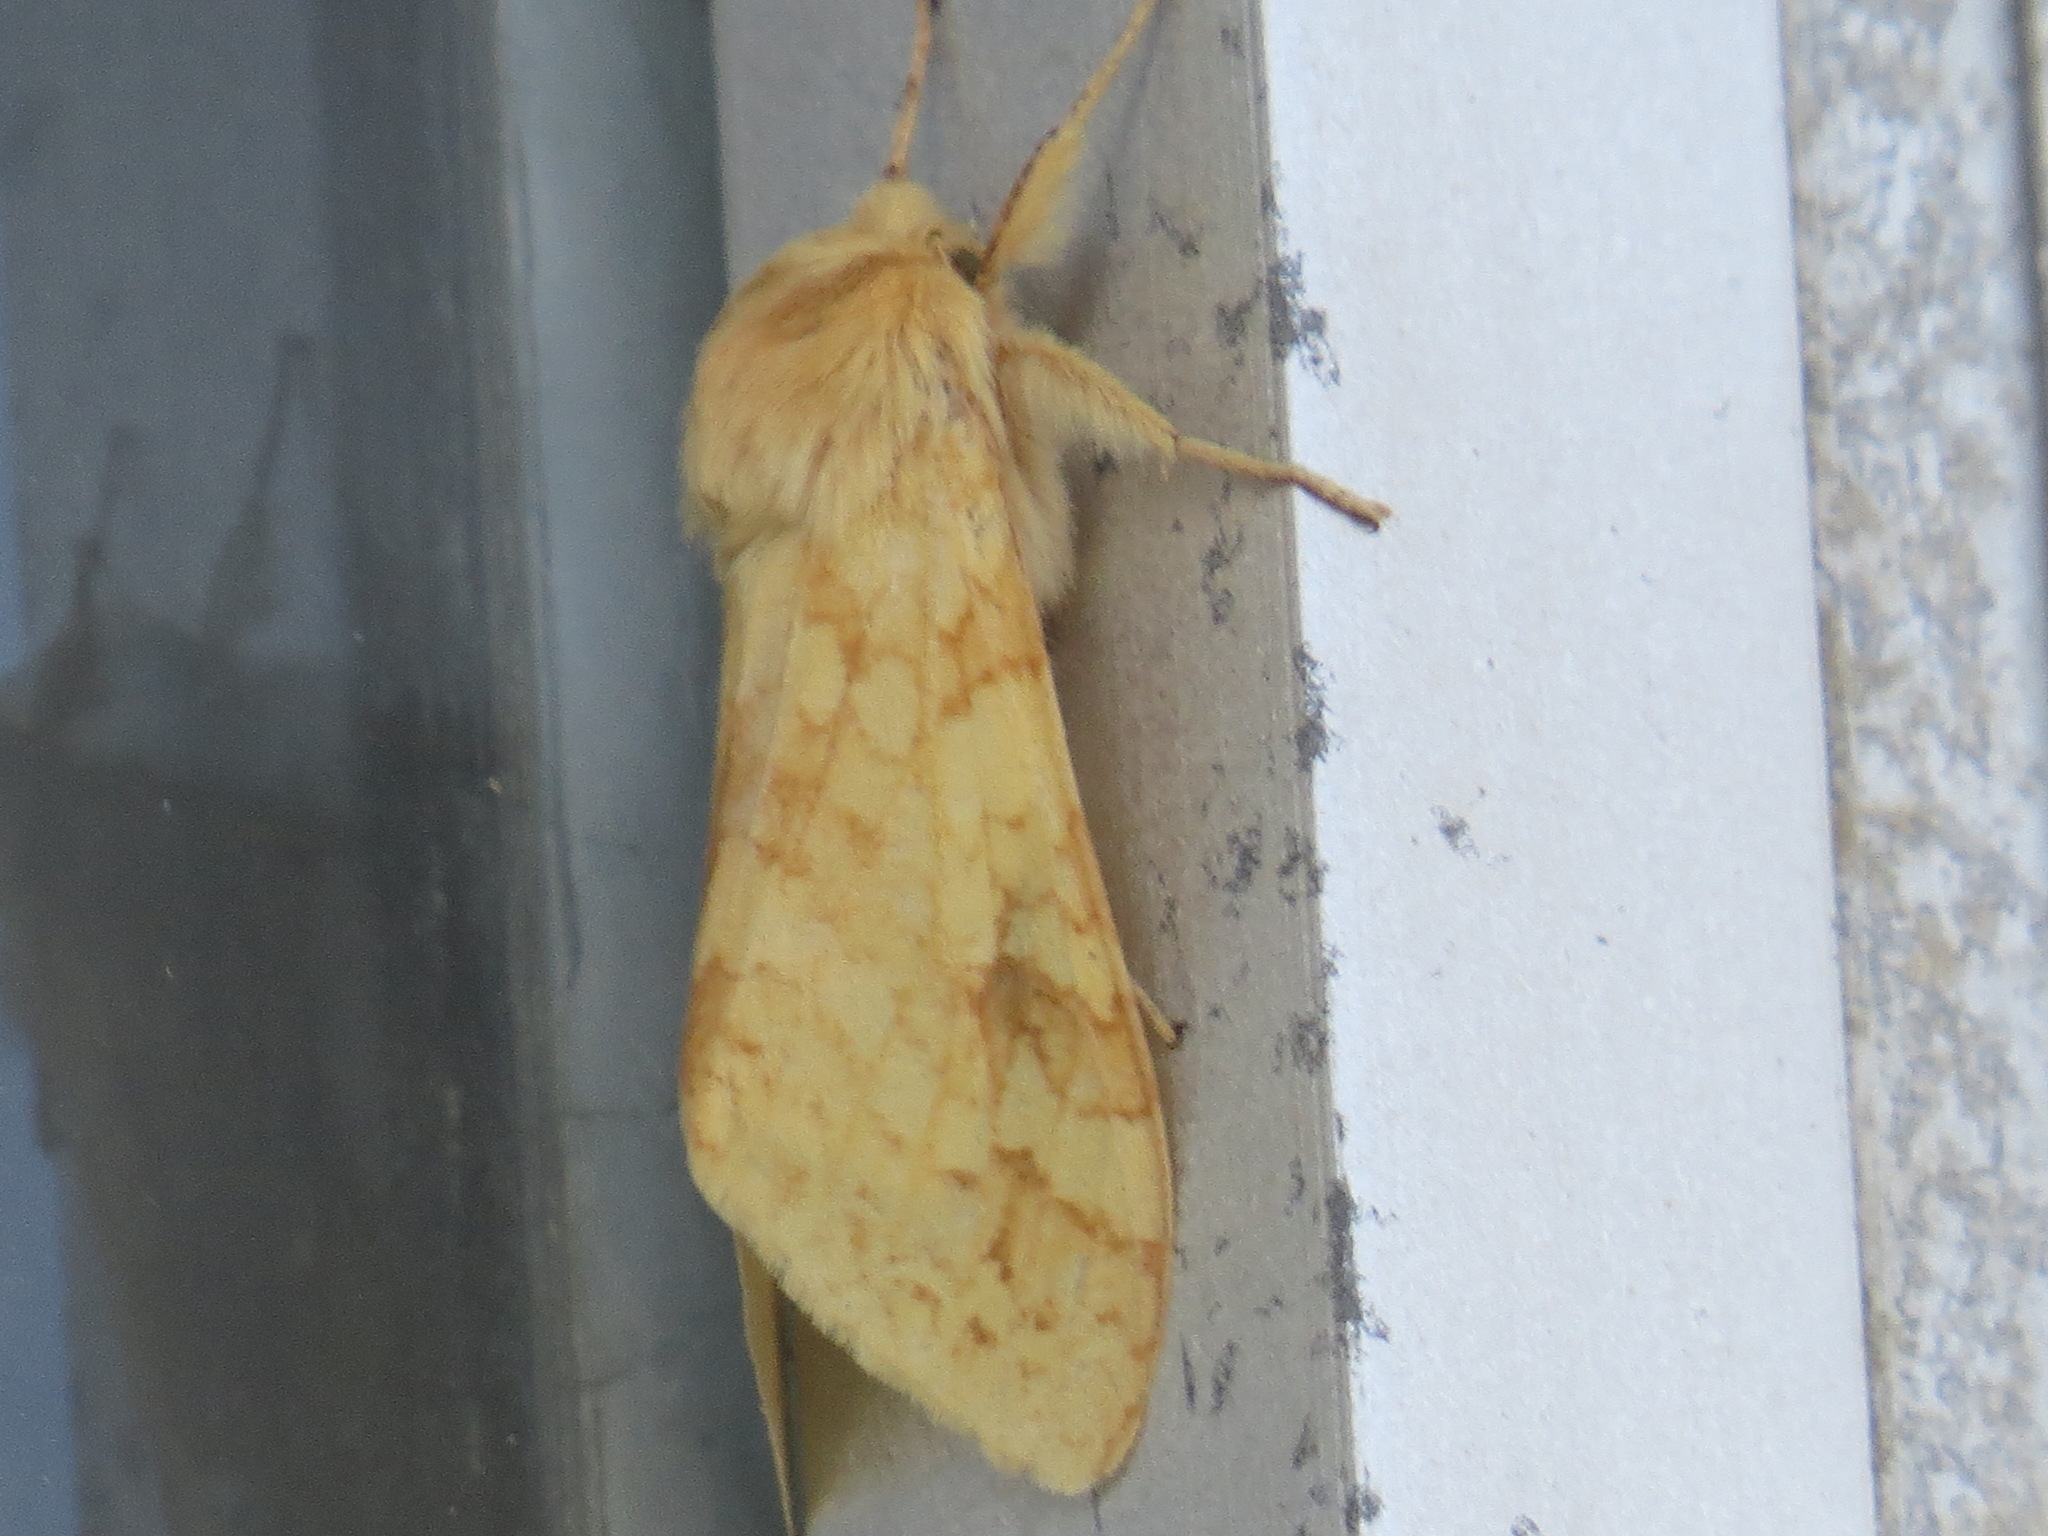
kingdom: Animalia
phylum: Arthropoda
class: Insecta
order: Lepidoptera
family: Erebidae
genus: Lophocampa
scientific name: Lophocampa maculata
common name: Spotted tussock moth
